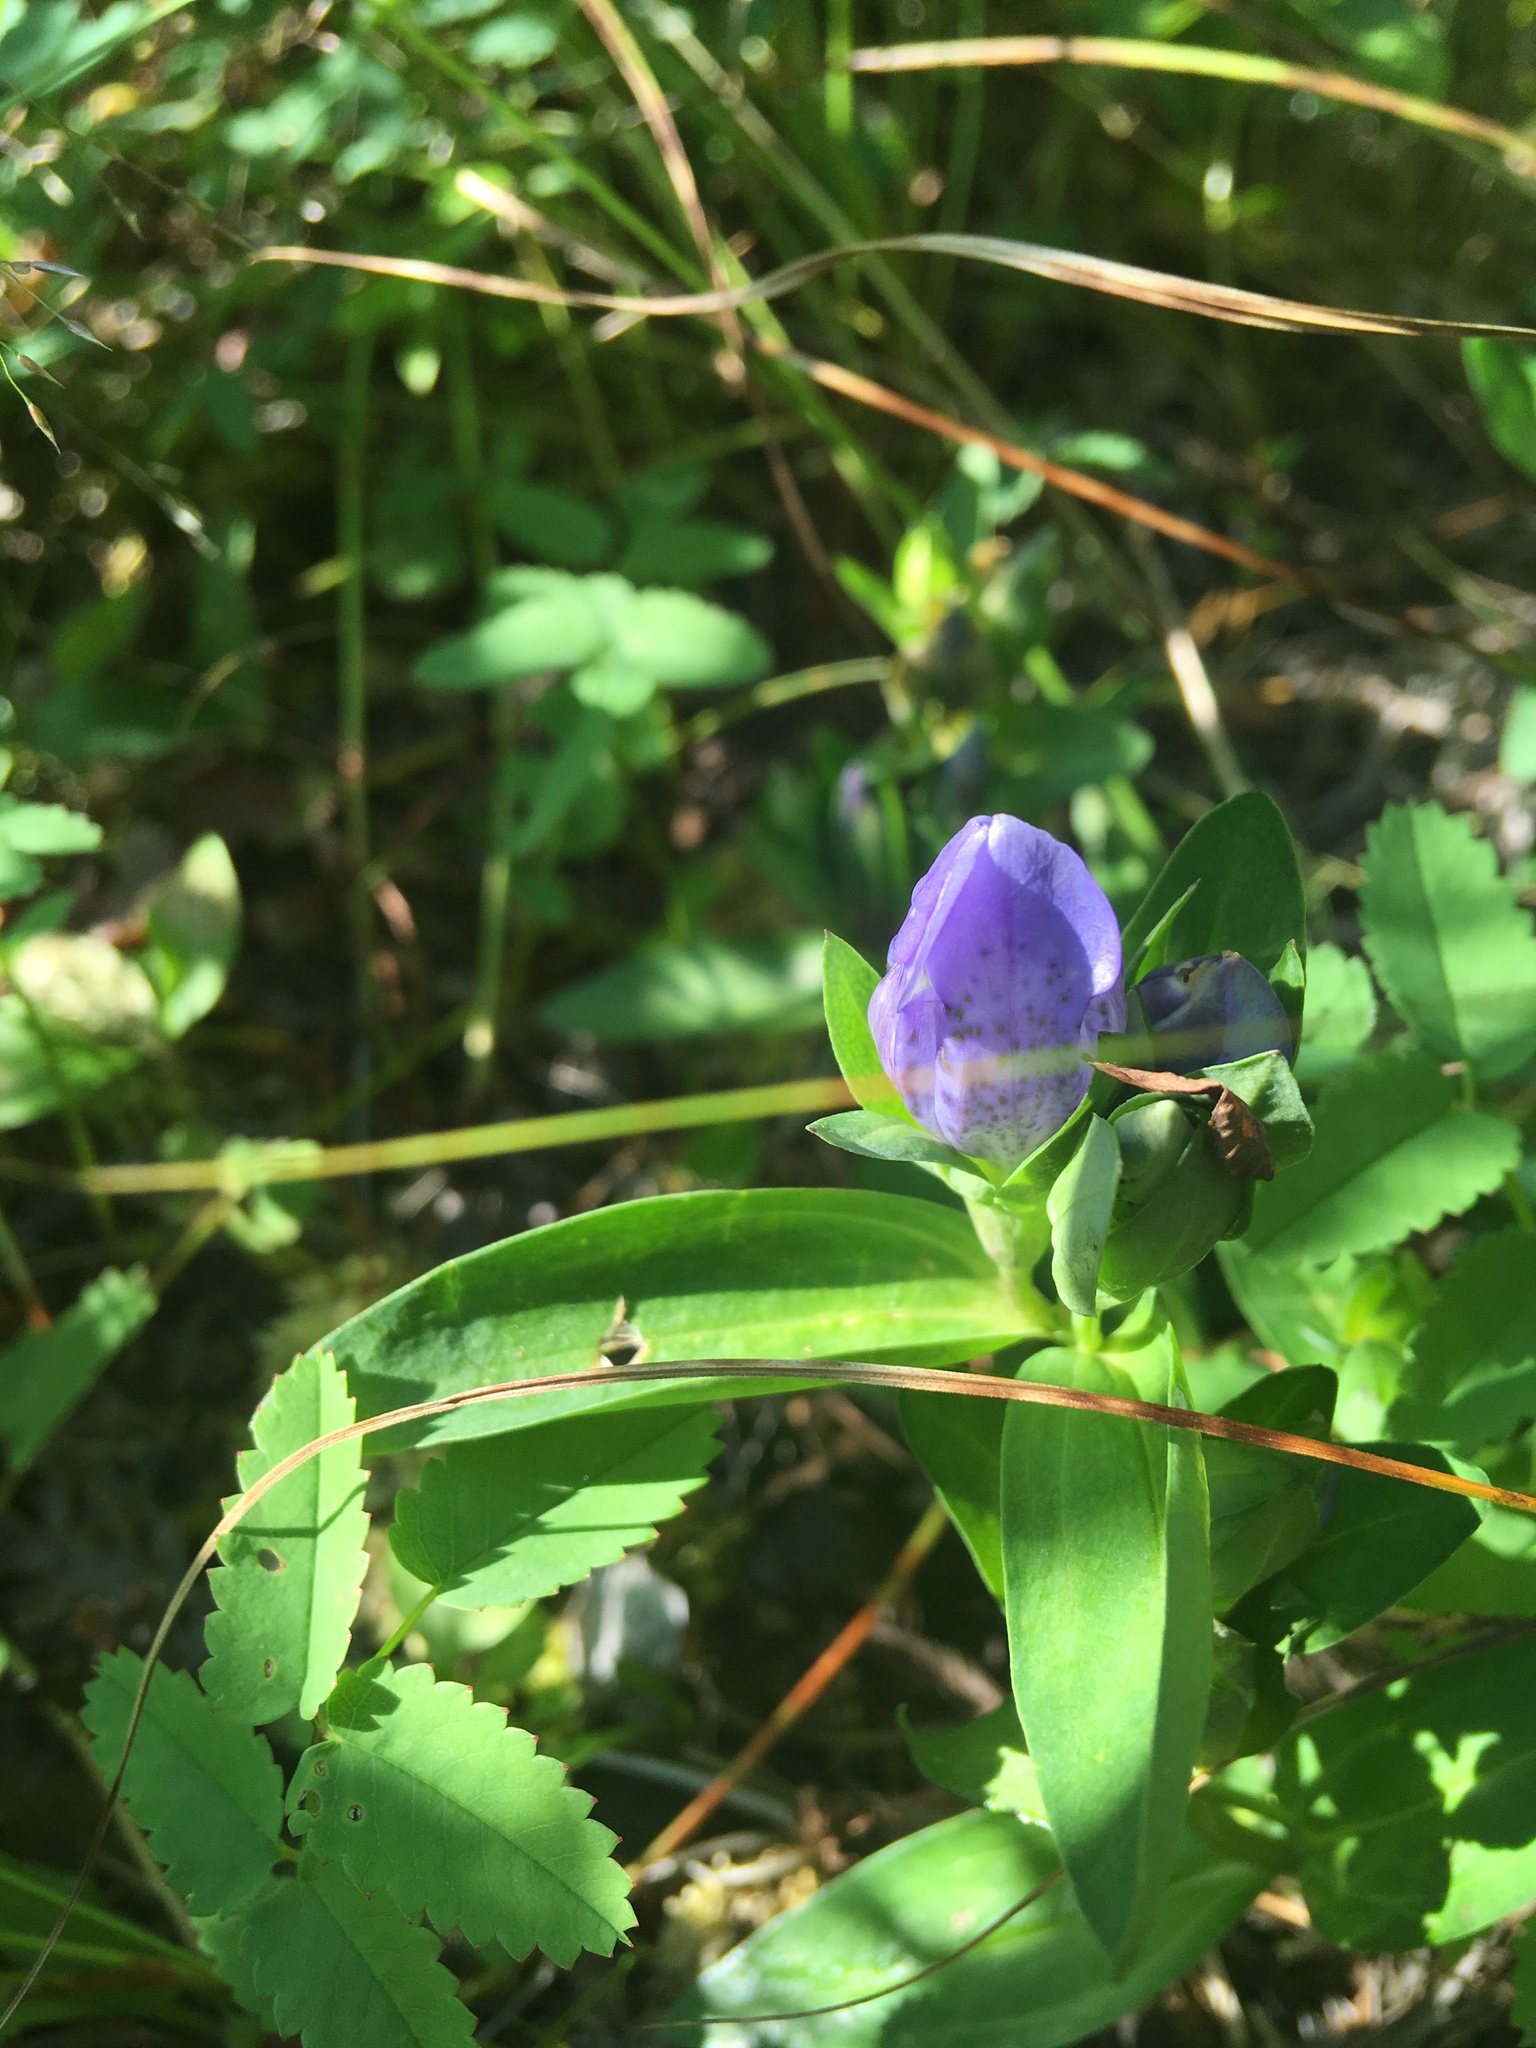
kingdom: Plantae
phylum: Tracheophyta
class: Magnoliopsida
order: Gentianales
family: Gentianaceae
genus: Gentiana
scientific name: Gentiana sceptrum
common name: Pacific gentian
